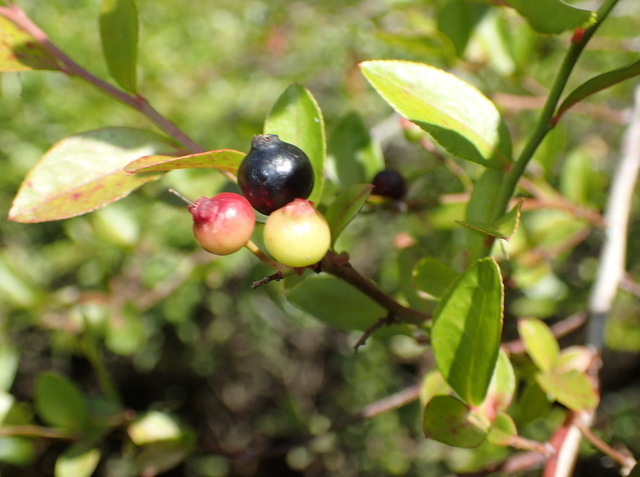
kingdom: Plantae
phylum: Tracheophyta
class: Magnoliopsida
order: Ericales
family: Ericaceae
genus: Vaccinium
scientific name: Vaccinium corymbosum
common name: Blueberry
